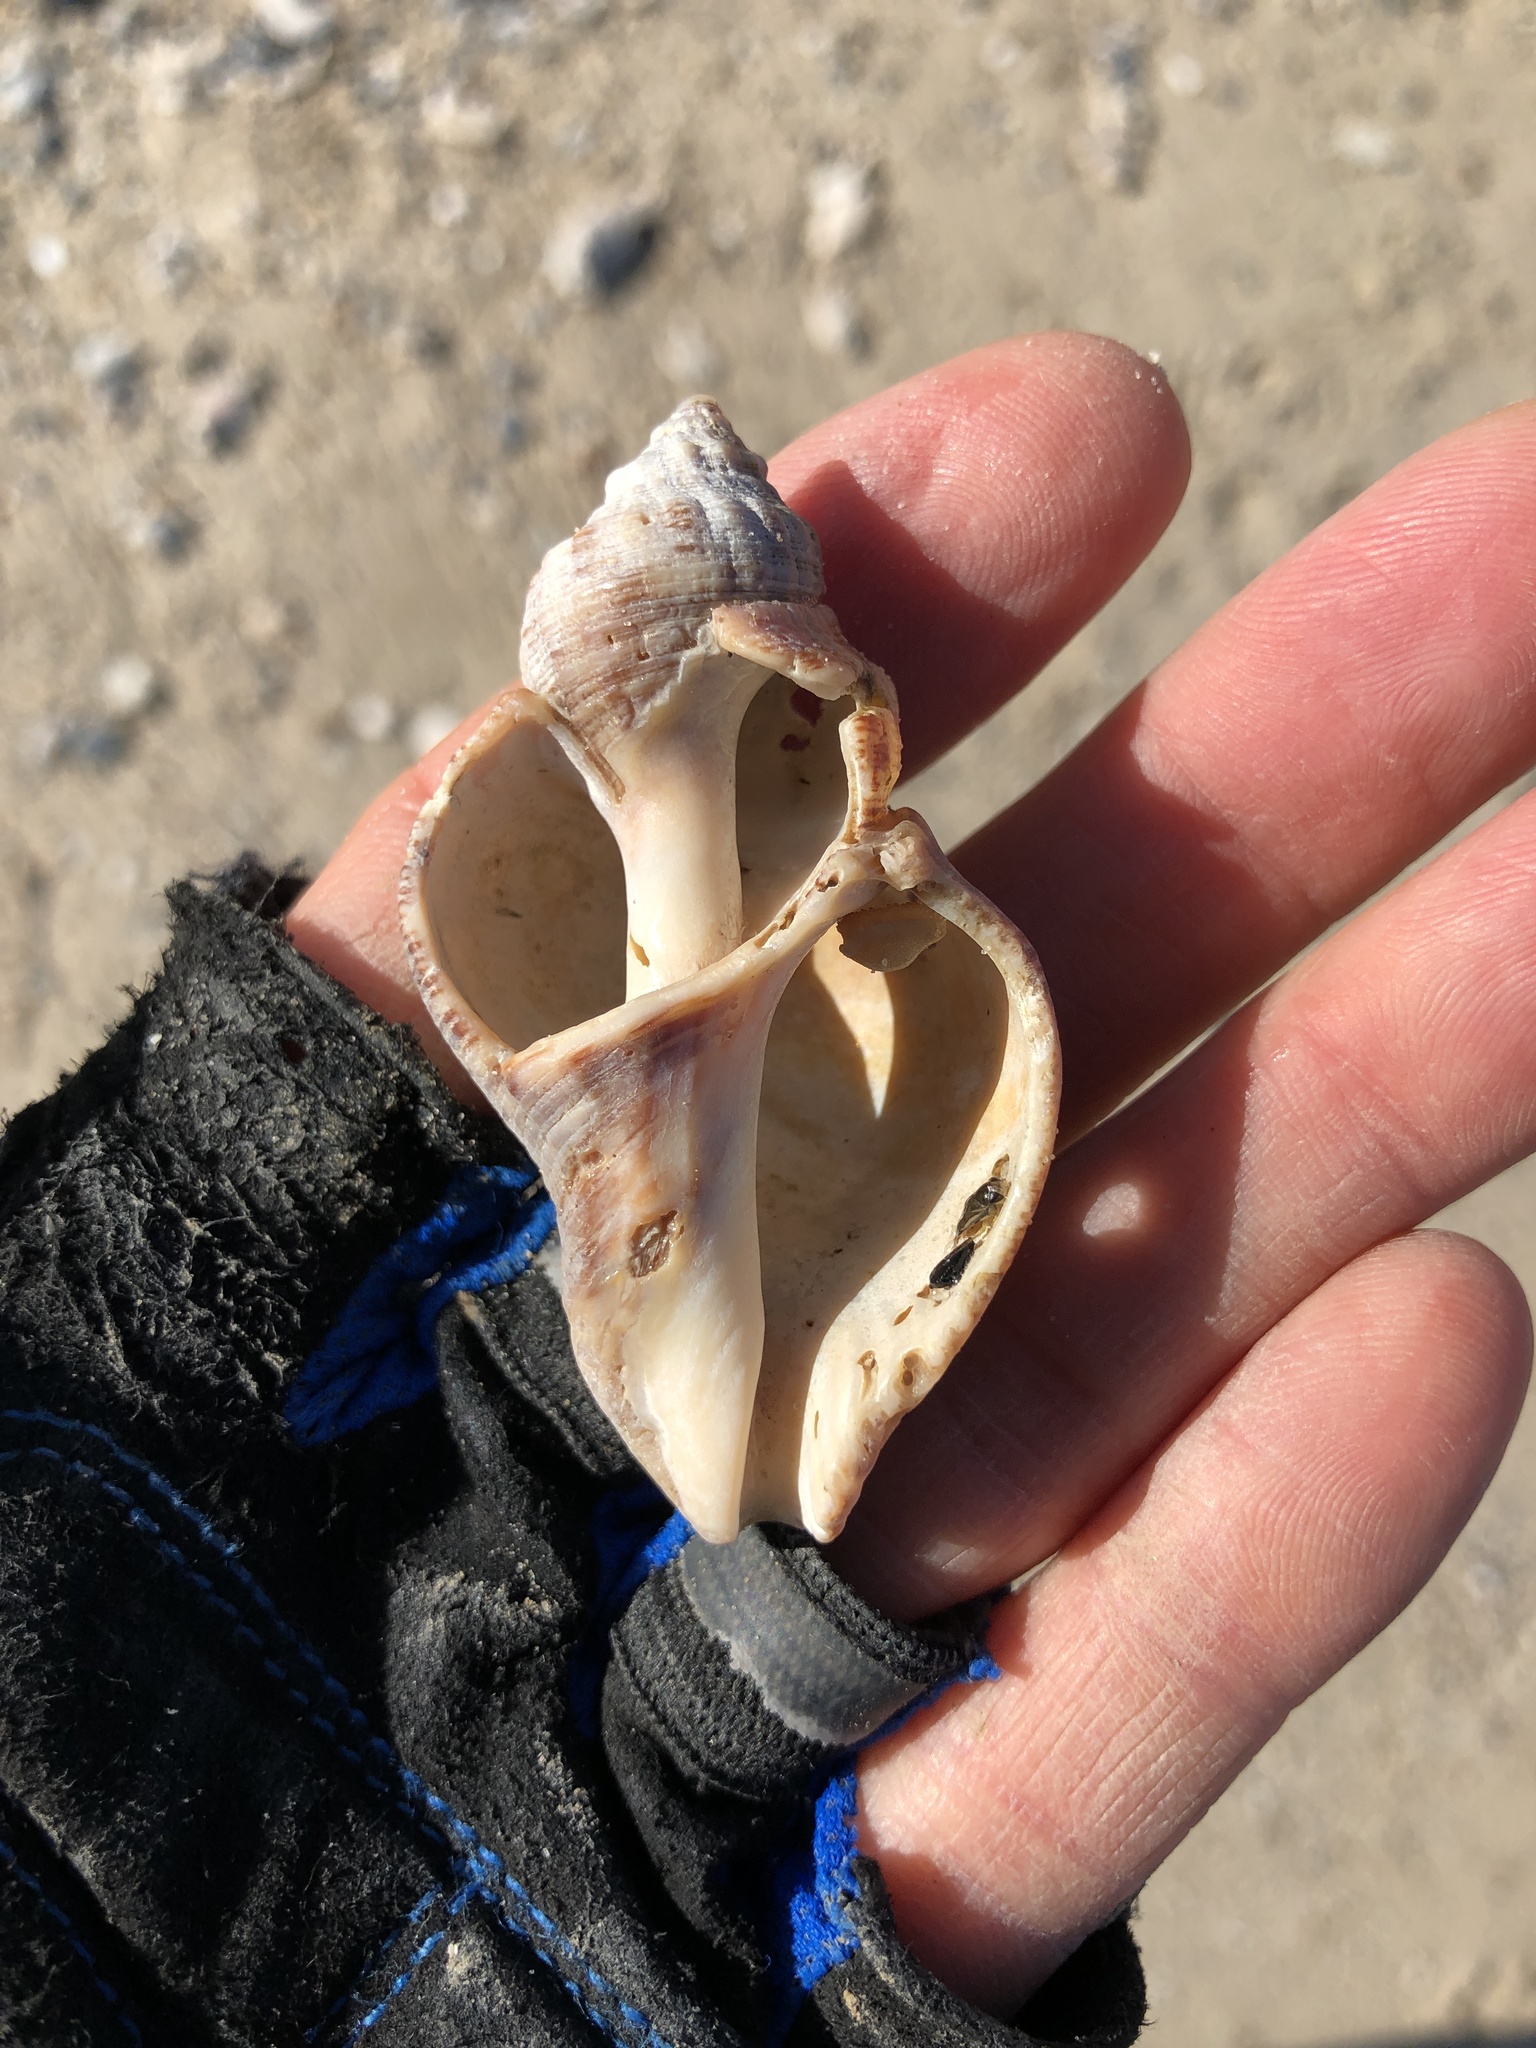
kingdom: Animalia
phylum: Mollusca
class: Gastropoda
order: Neogastropoda
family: Muricidae
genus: Stramonita
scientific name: Stramonita canaliculata
